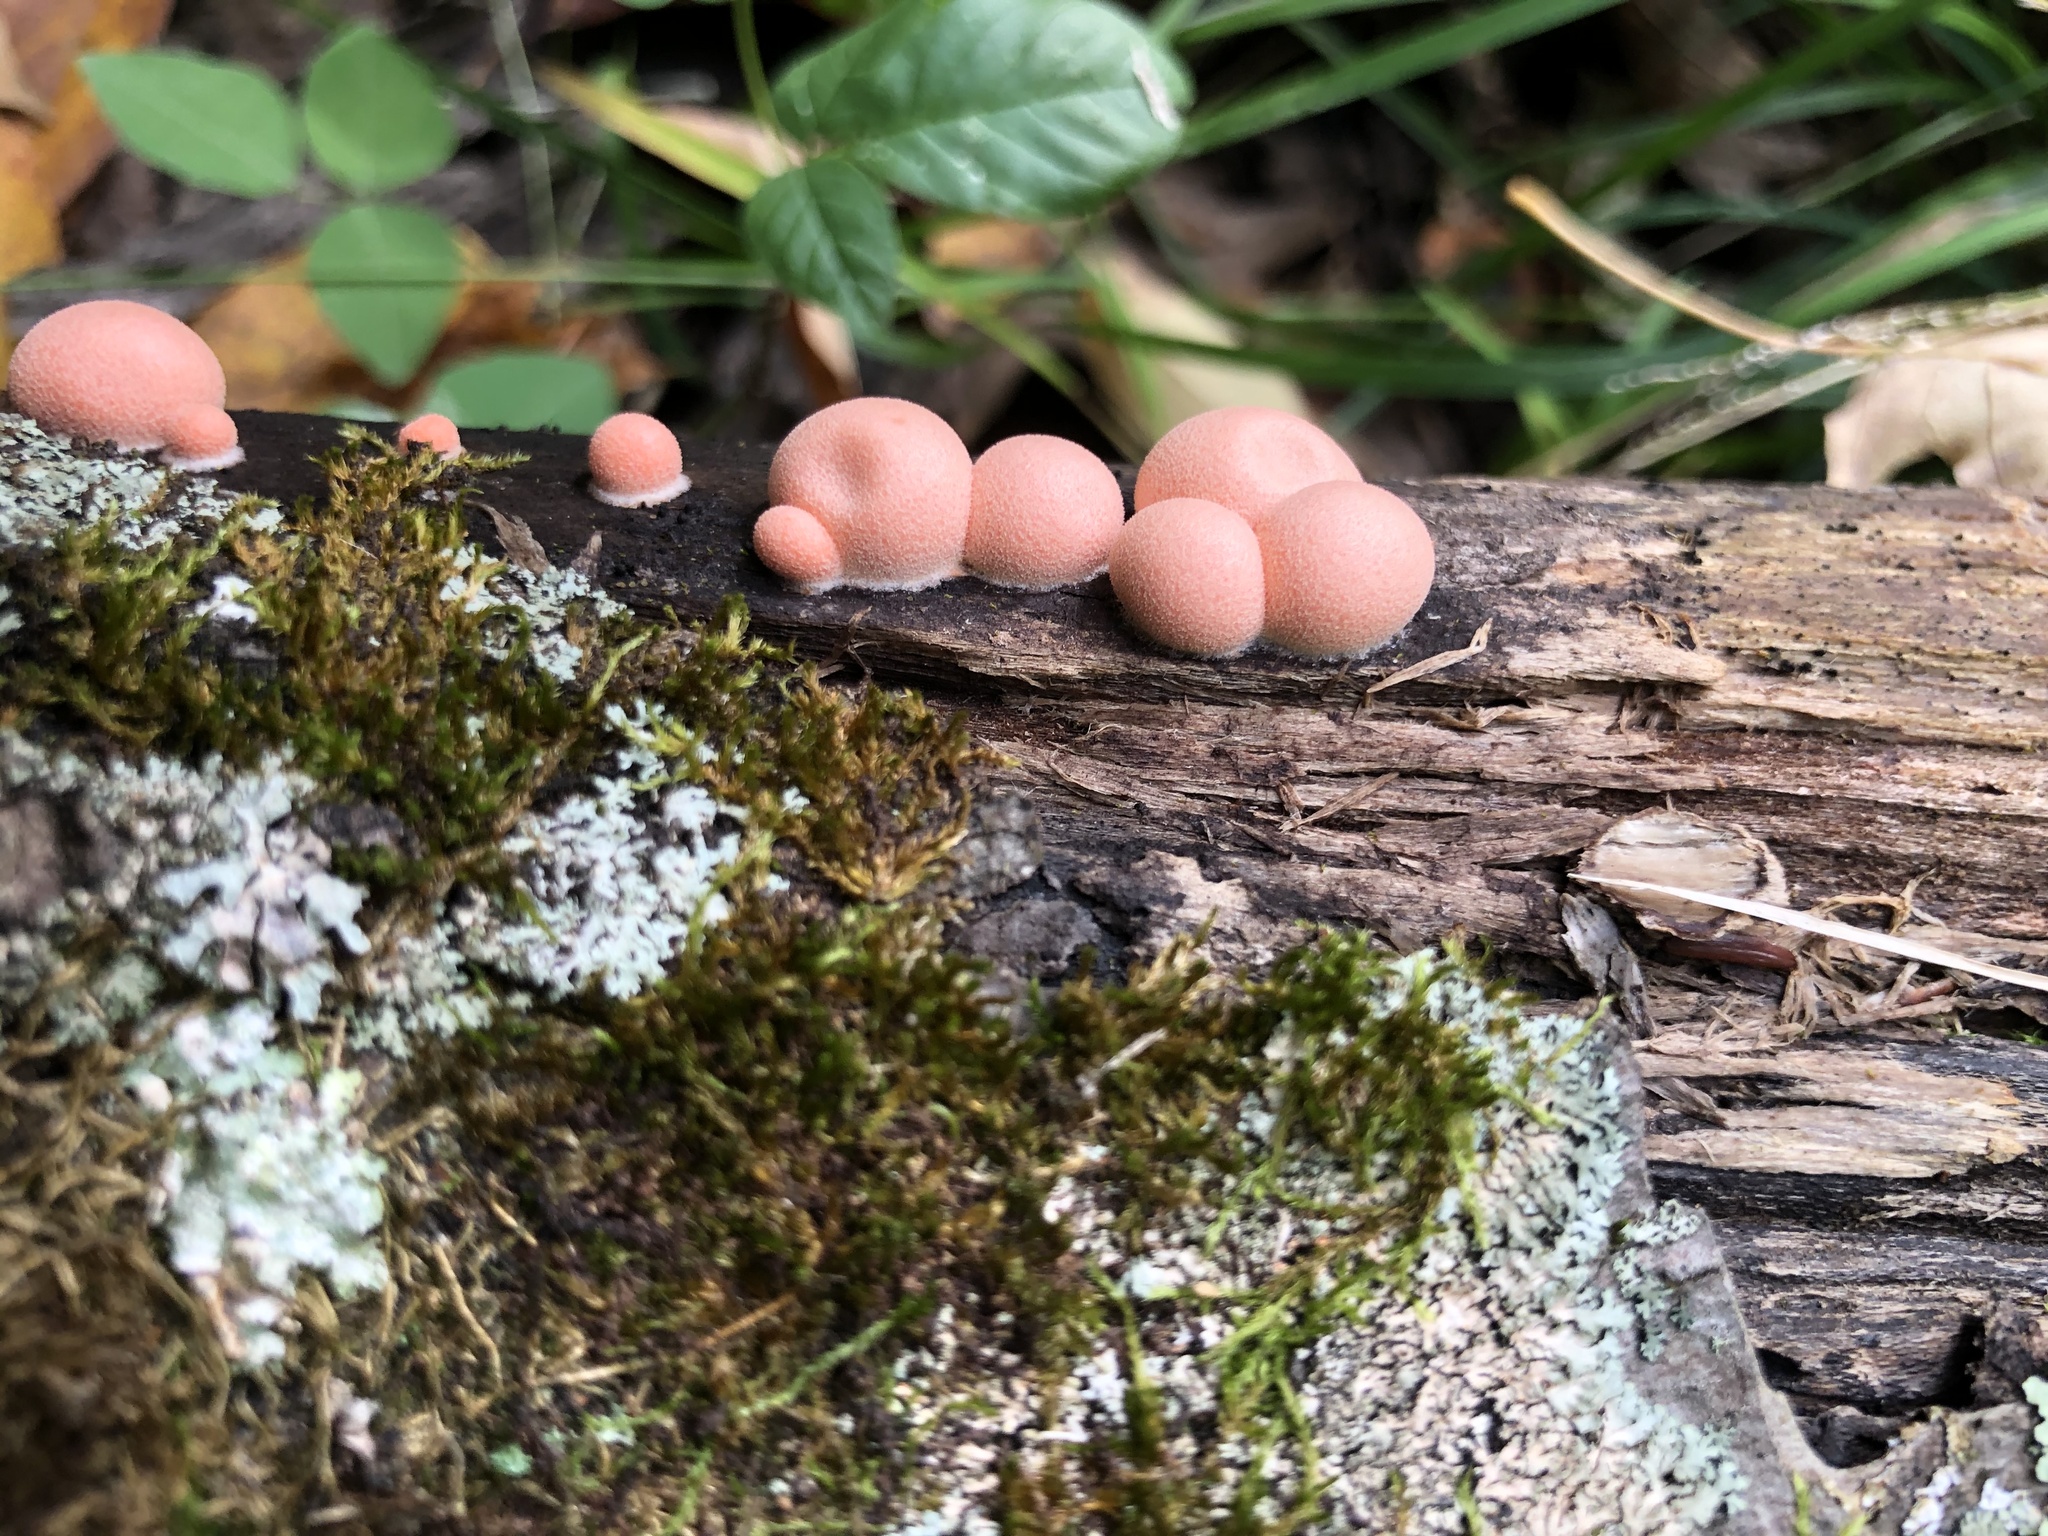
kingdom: Protozoa
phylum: Mycetozoa
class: Myxomycetes
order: Cribrariales
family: Tubiferaceae
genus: Lycogala
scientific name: Lycogala epidendrum
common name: Wolf's milk
